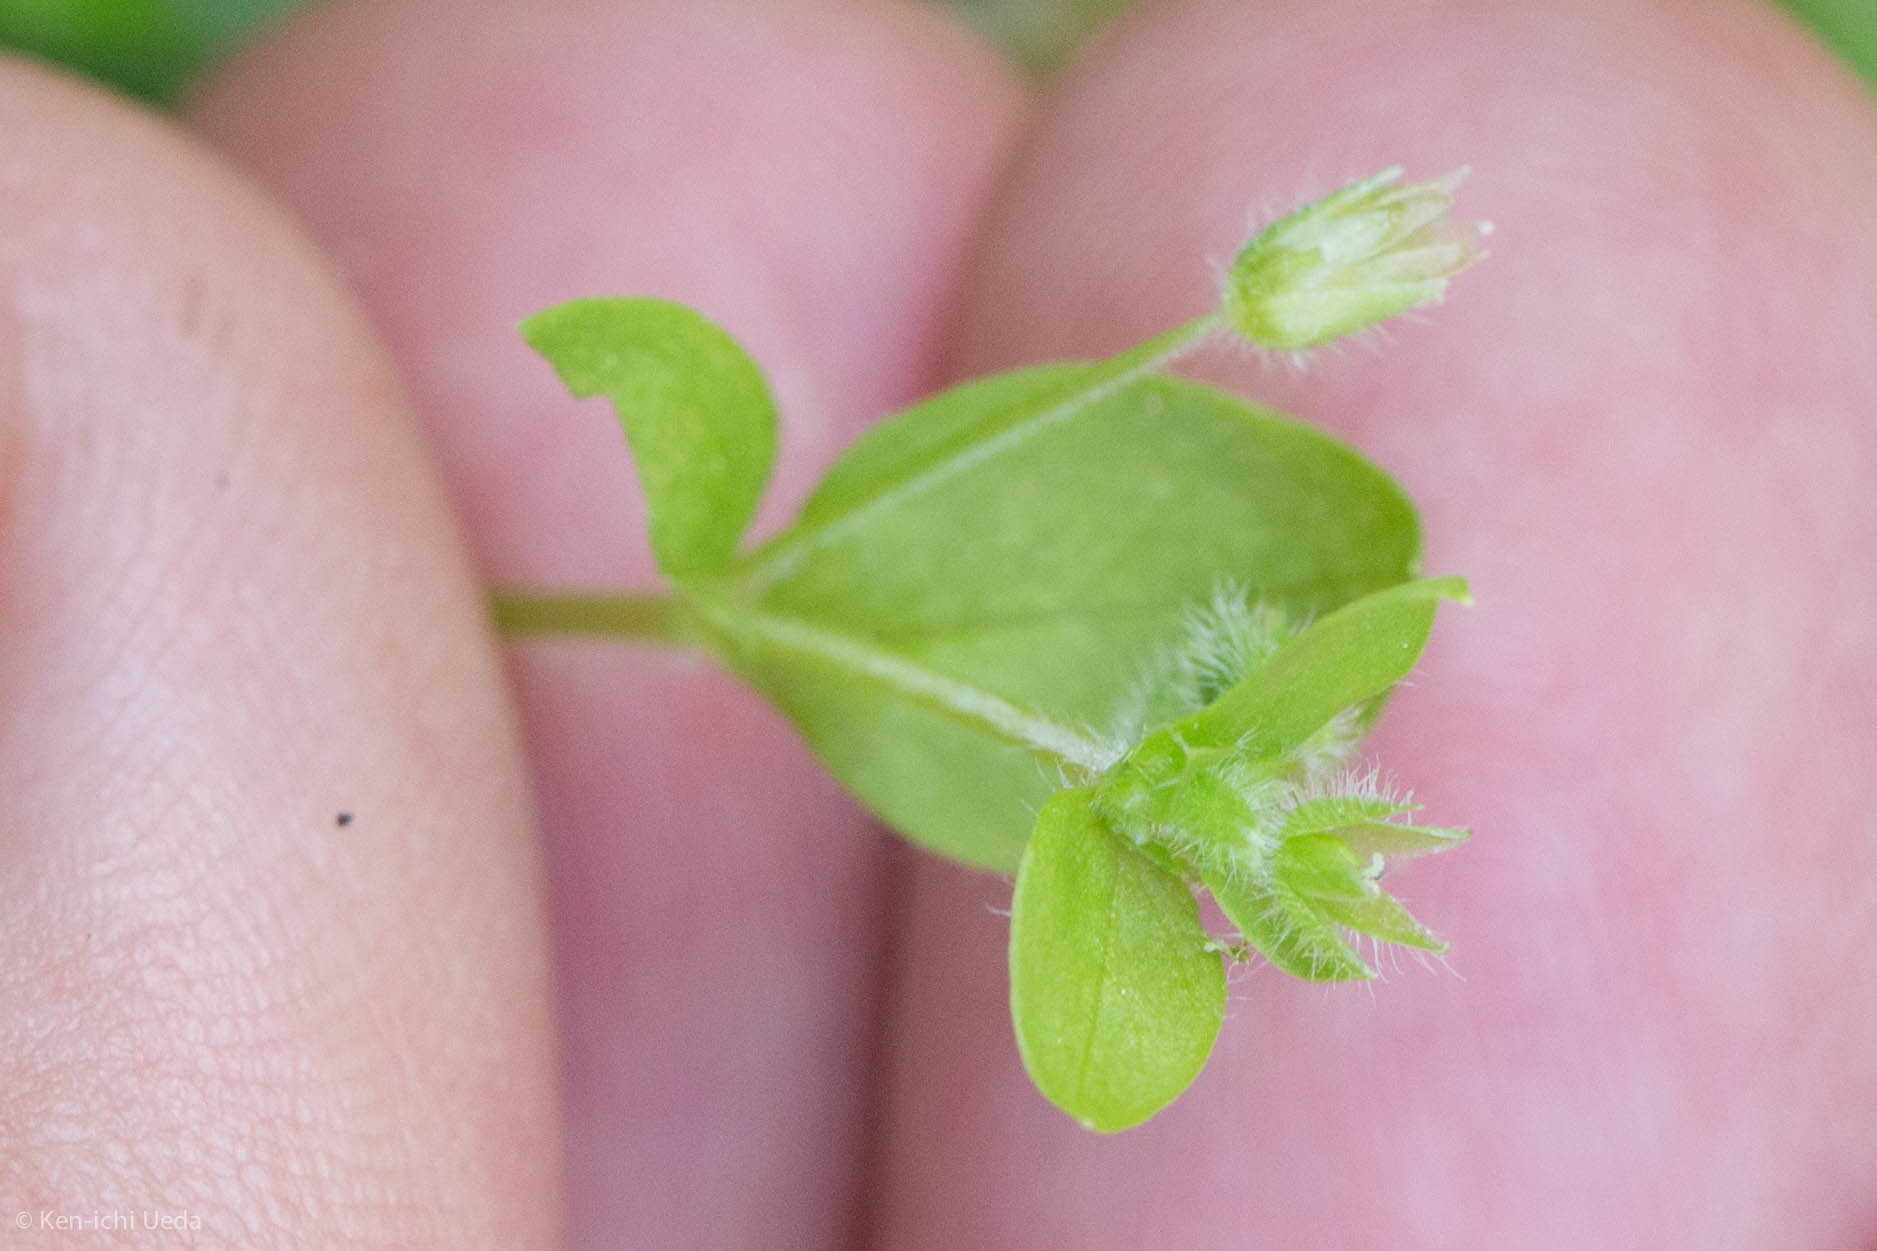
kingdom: Plantae
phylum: Tracheophyta
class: Magnoliopsida
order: Caryophyllales
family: Polygonaceae
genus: Pterostegia
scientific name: Pterostegia drymarioides
